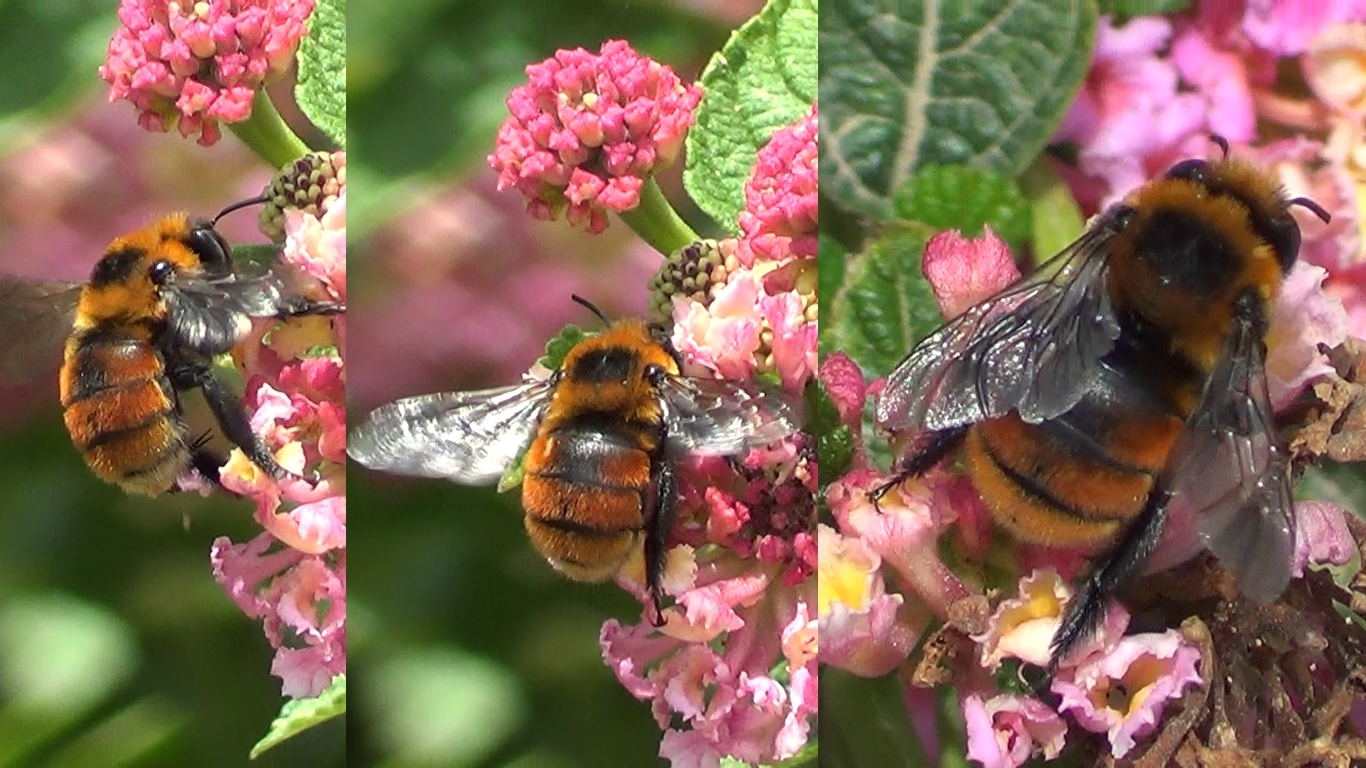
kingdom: Animalia
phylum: Arthropoda
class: Insecta
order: Hymenoptera
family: Apidae
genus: Anthophora
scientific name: Anthophora quadricolor
